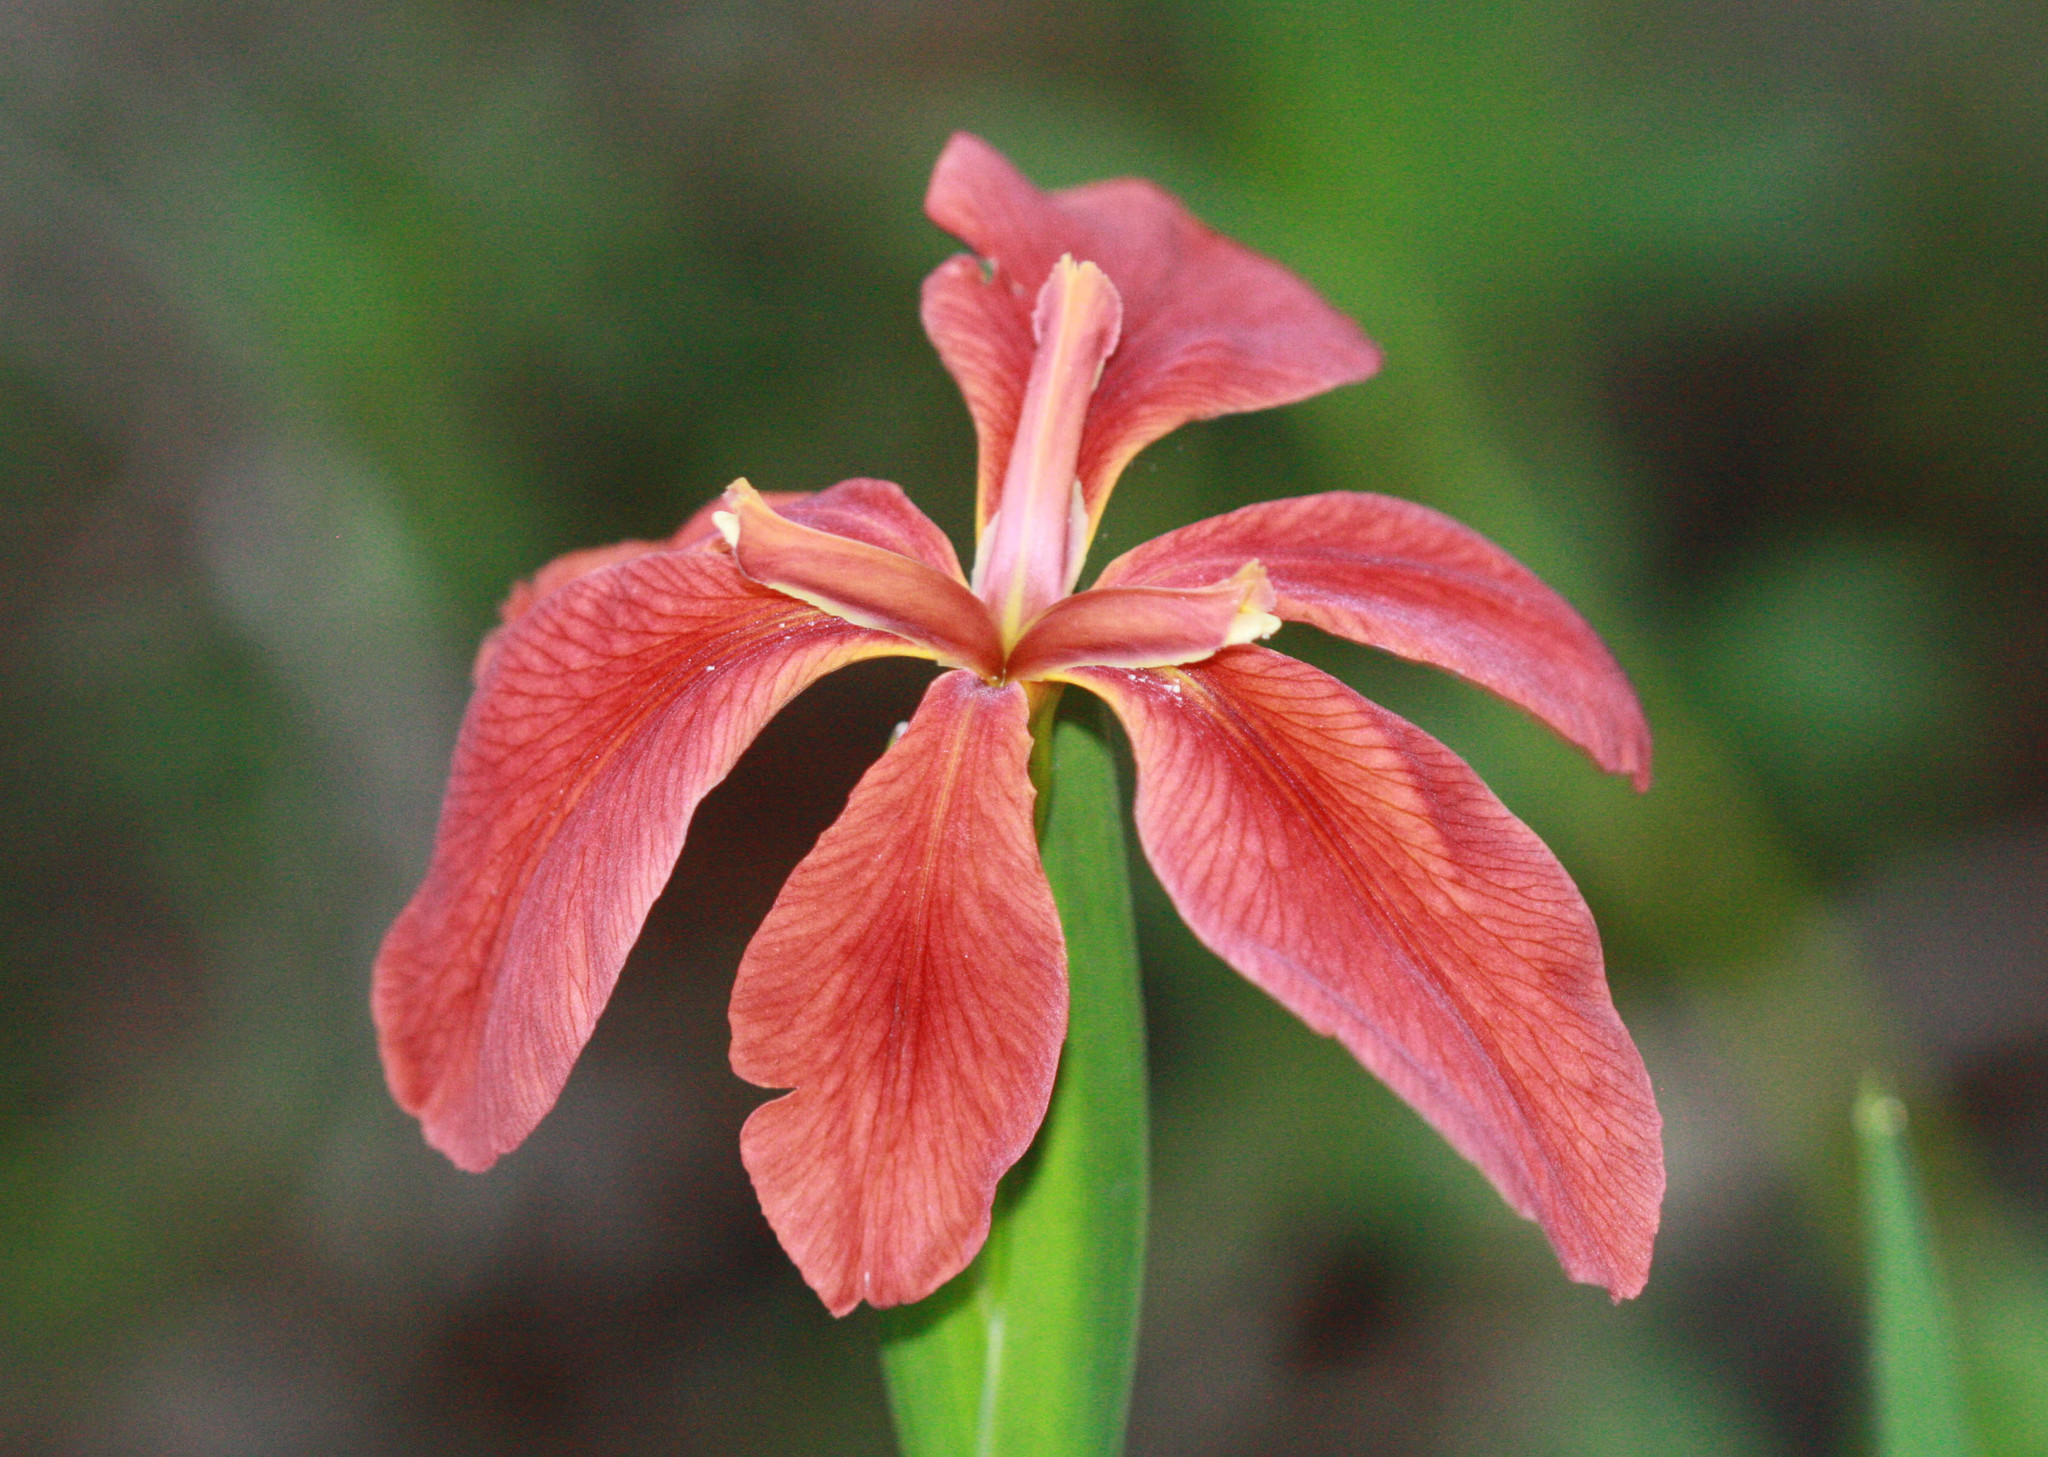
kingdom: Plantae
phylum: Tracheophyta
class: Liliopsida
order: Asparagales
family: Iridaceae
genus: Iris
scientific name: Iris fulva
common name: Copper iris
